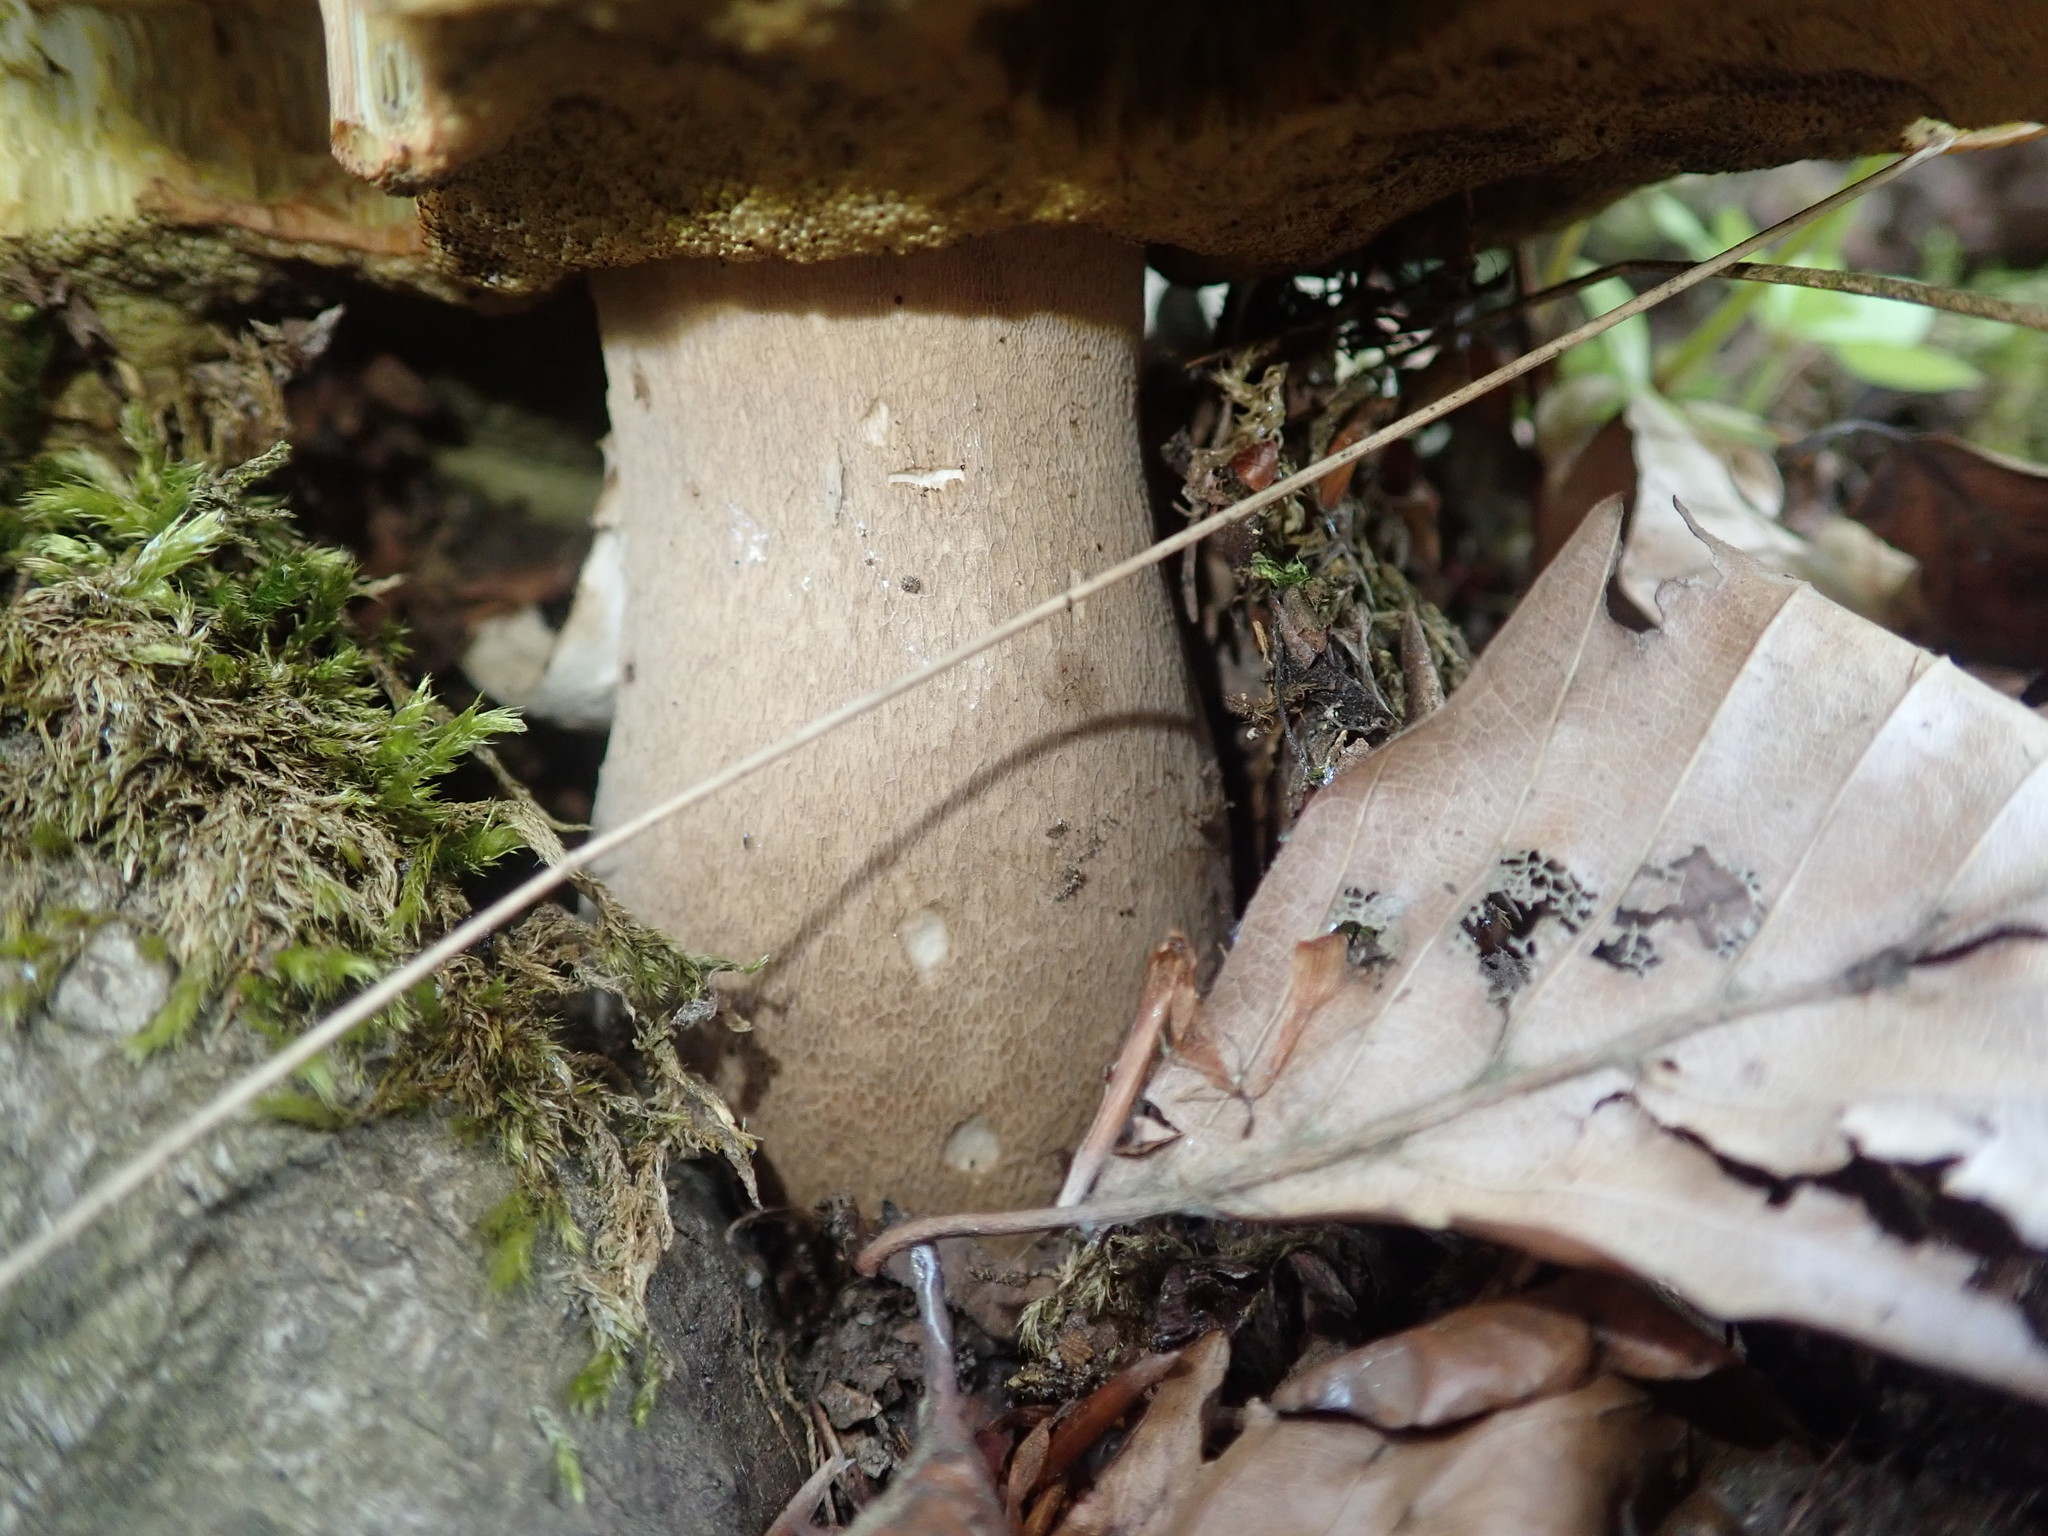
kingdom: Fungi
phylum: Basidiomycota
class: Agaricomycetes
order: Boletales
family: Boletaceae
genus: Boletus
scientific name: Boletus reticulatus
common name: Summer bolete
